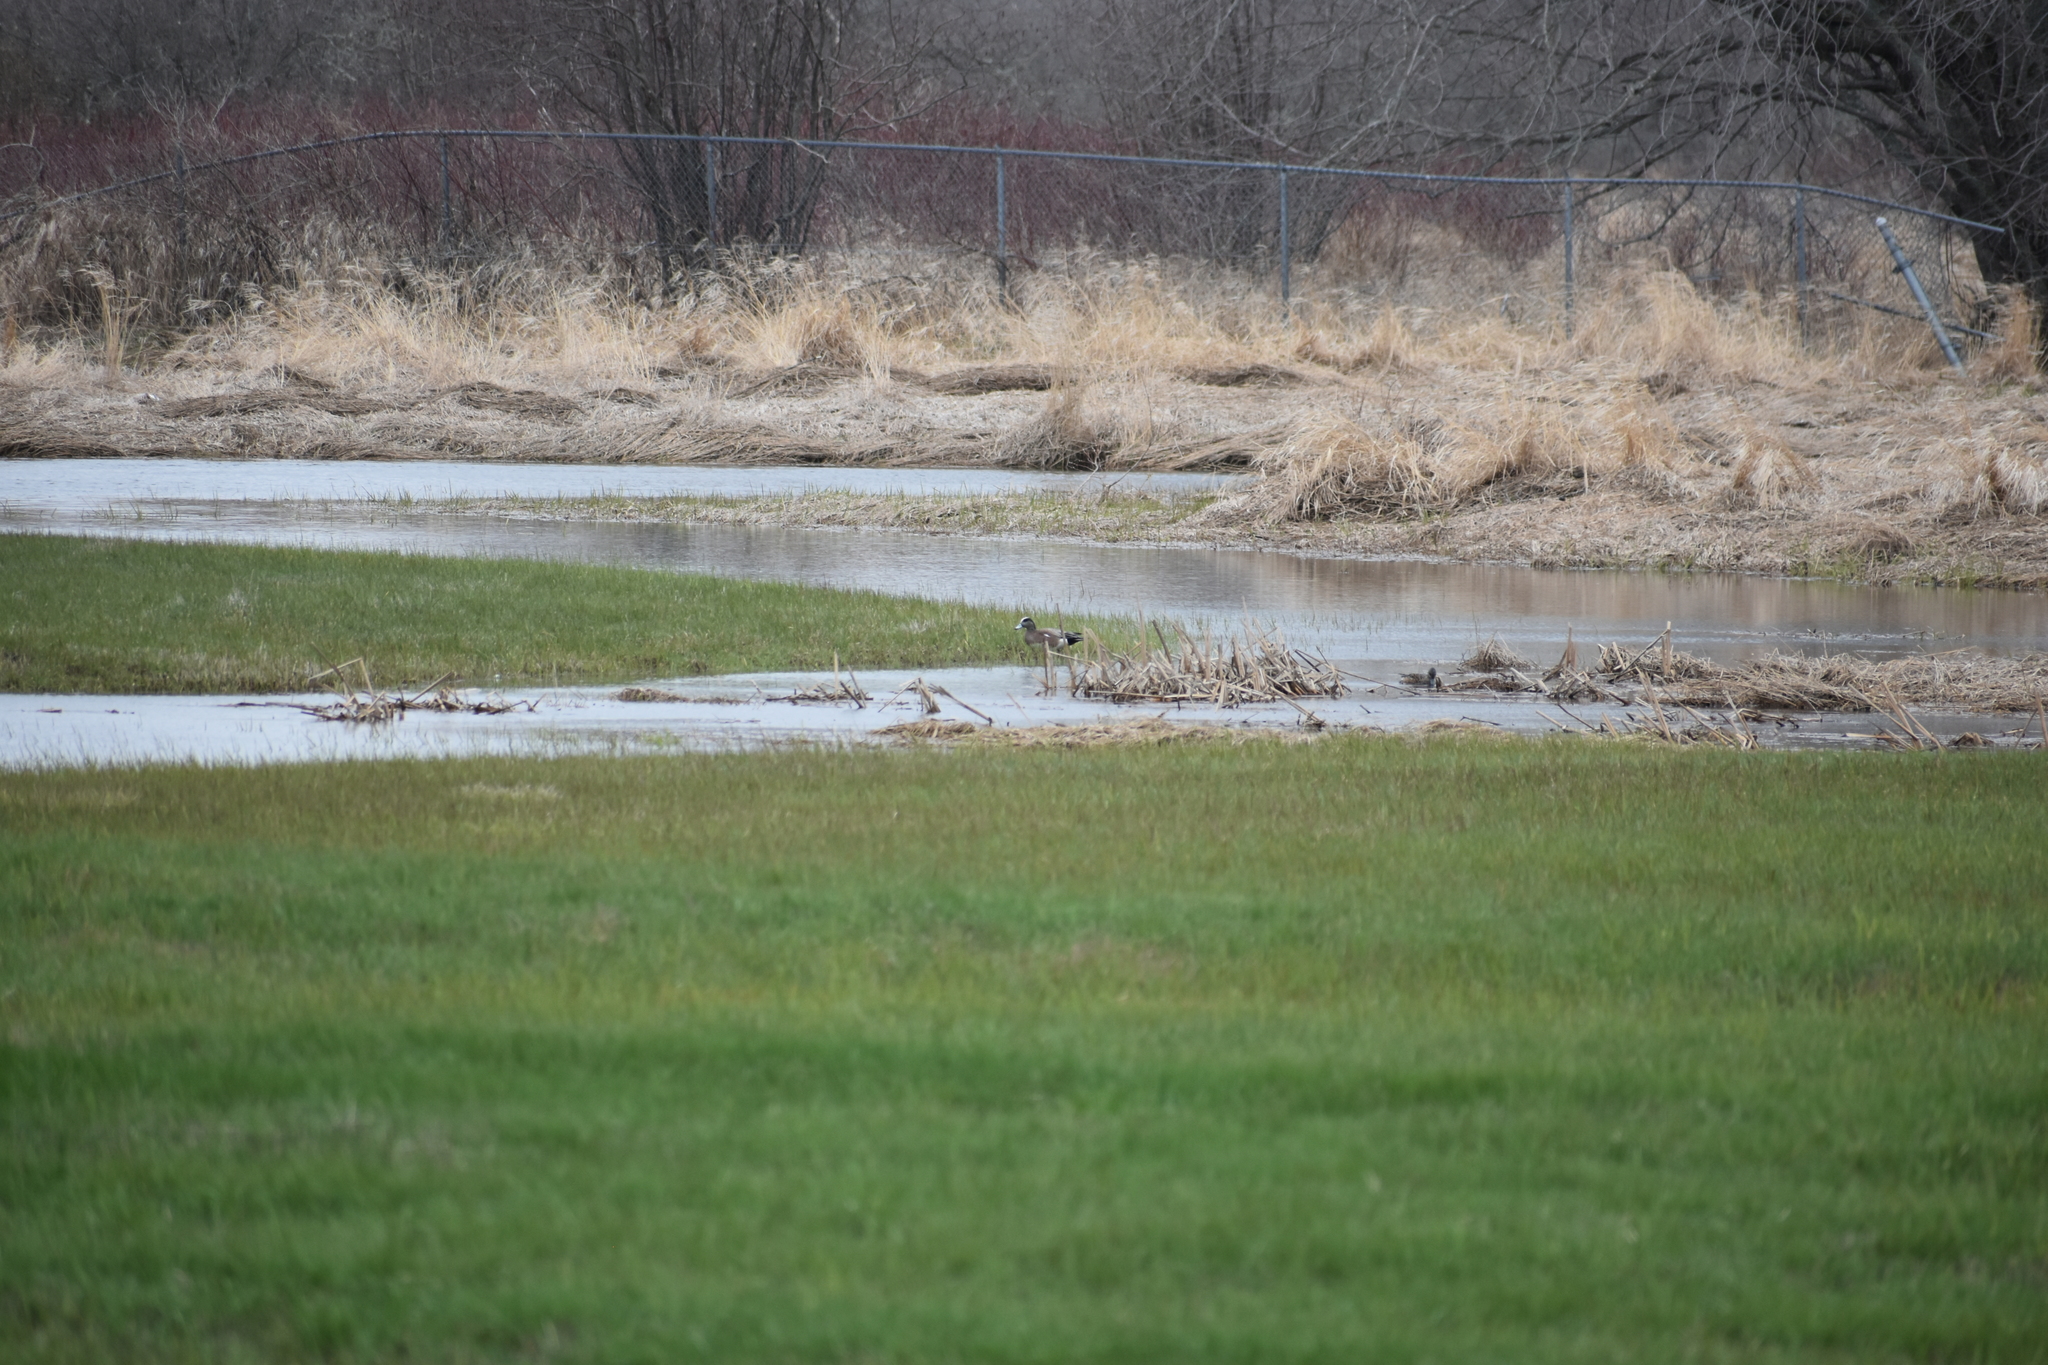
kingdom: Animalia
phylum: Chordata
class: Aves
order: Anseriformes
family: Anatidae
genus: Mareca
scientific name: Mareca americana
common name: American wigeon
